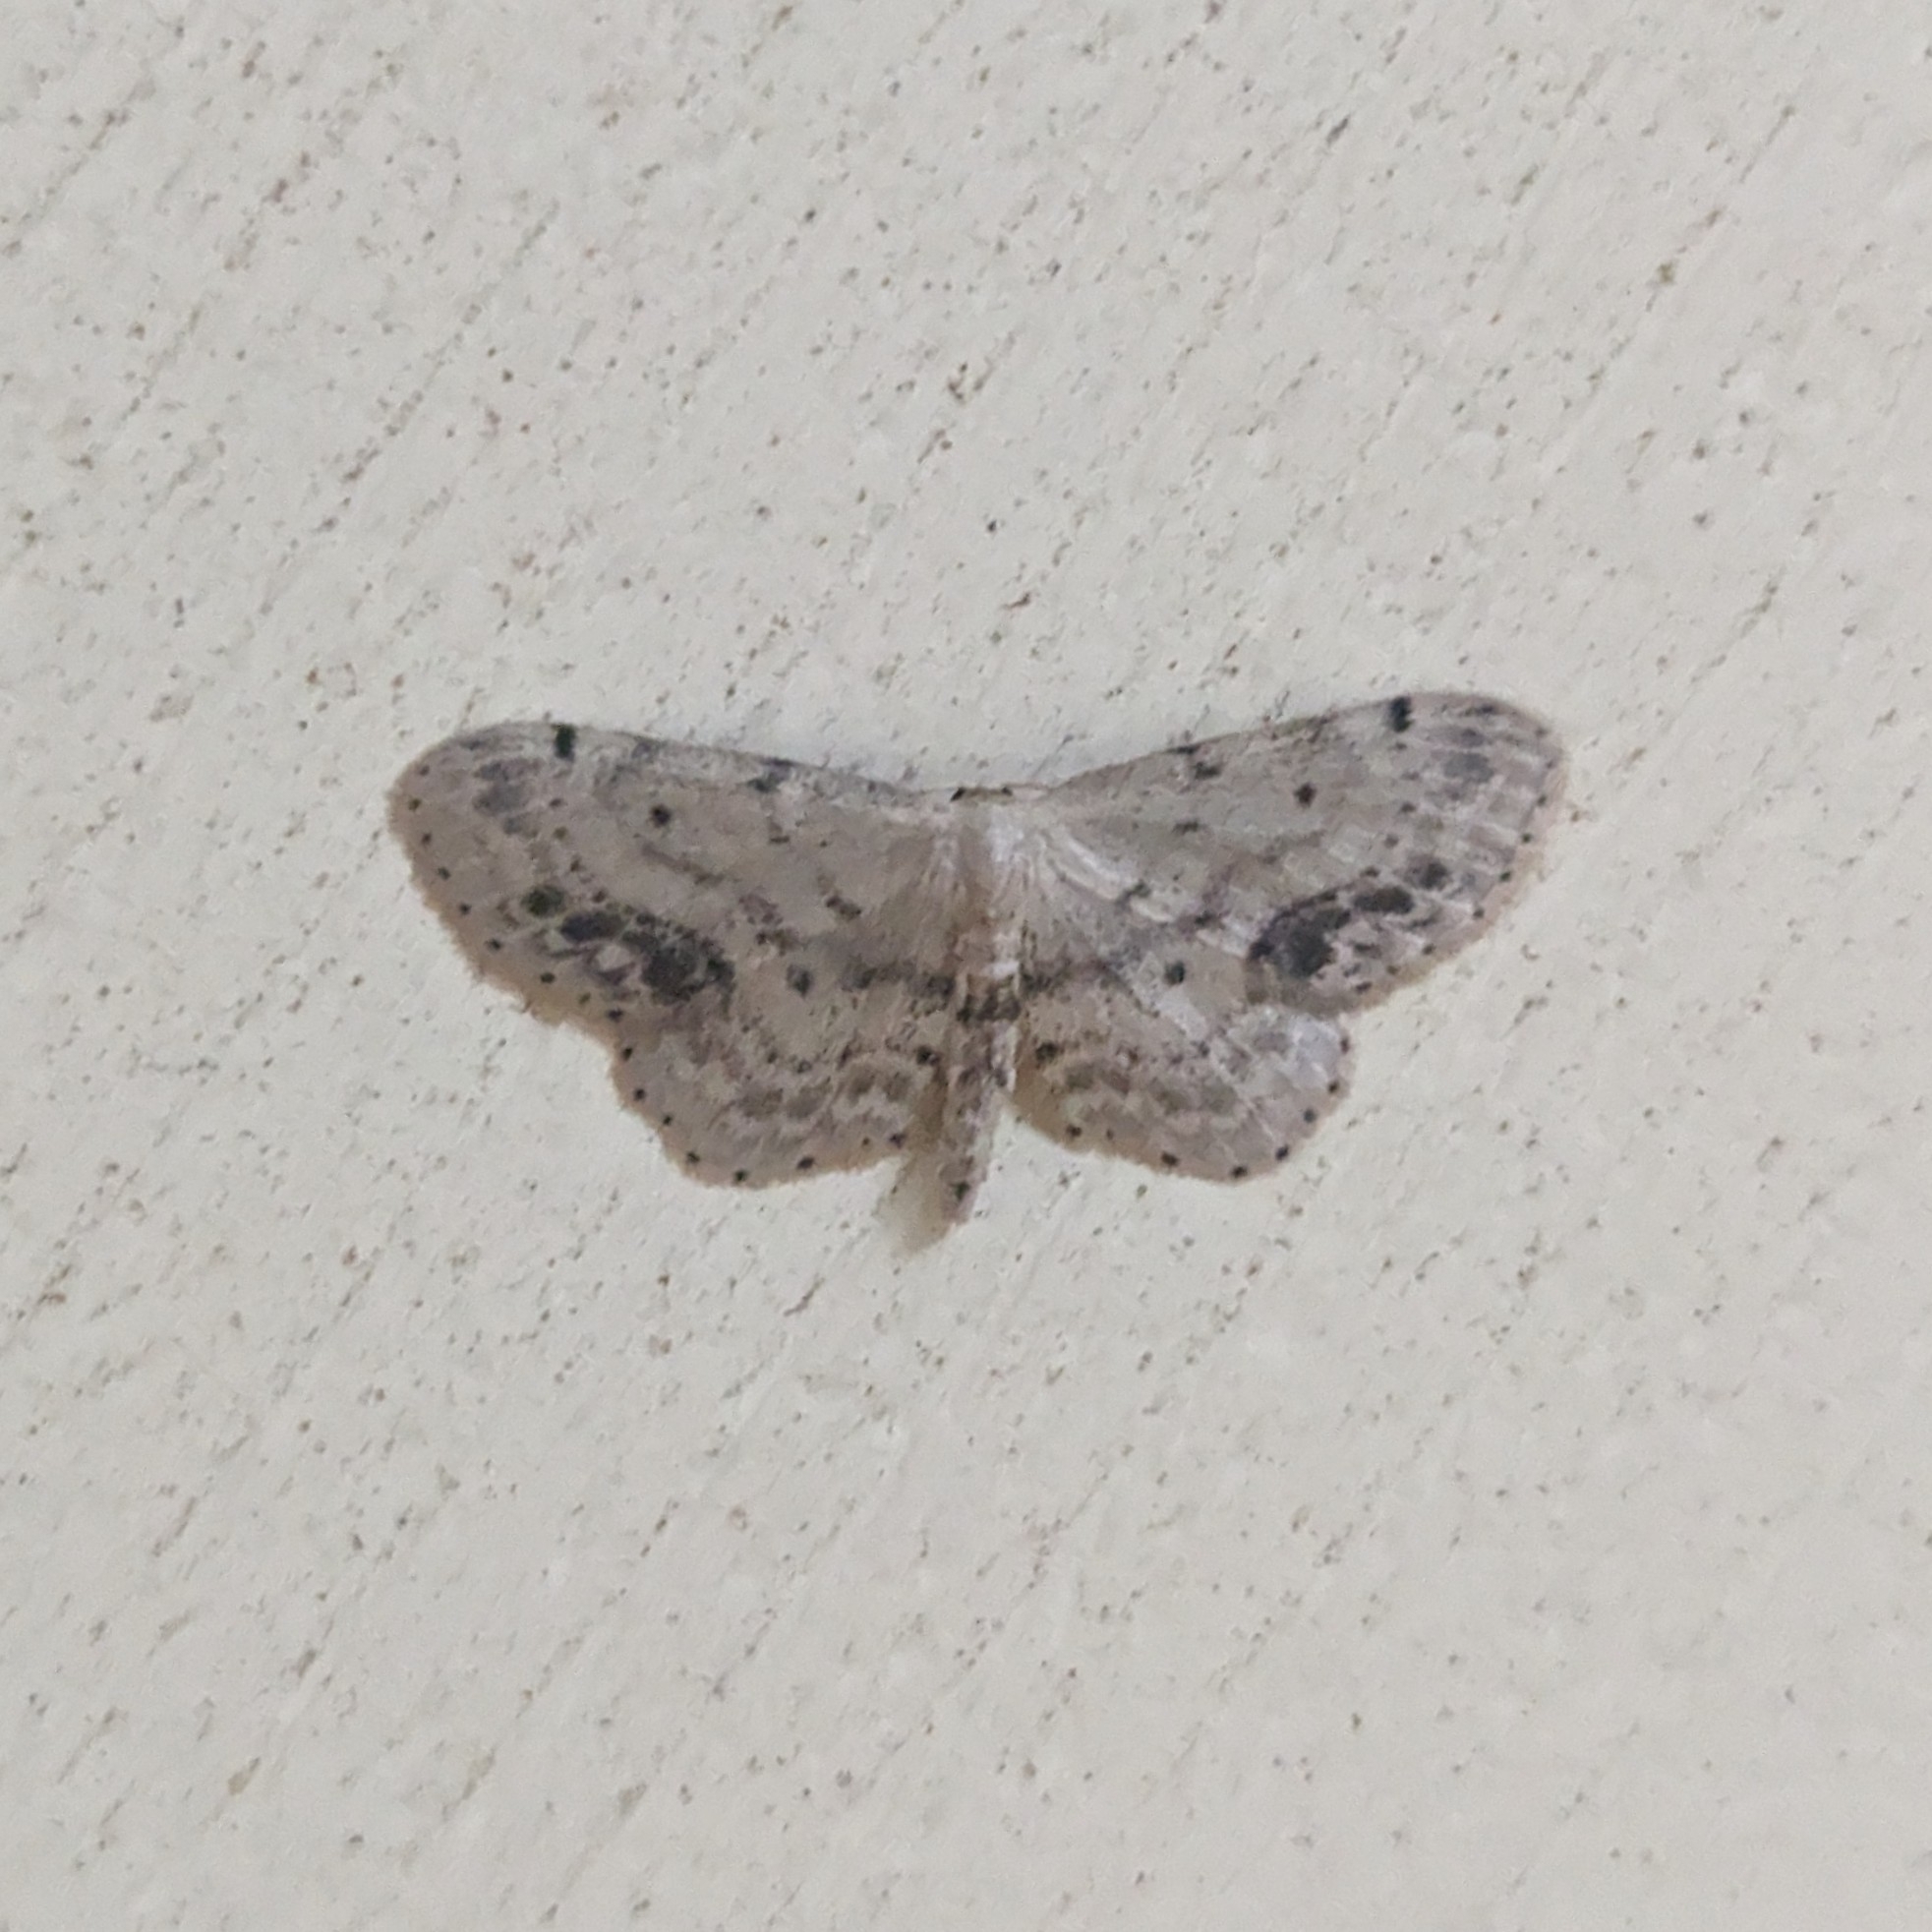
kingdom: Animalia
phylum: Arthropoda
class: Insecta
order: Lepidoptera
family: Geometridae
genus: Idaea
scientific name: Idaea dimidiata
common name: Single-dotted wave
